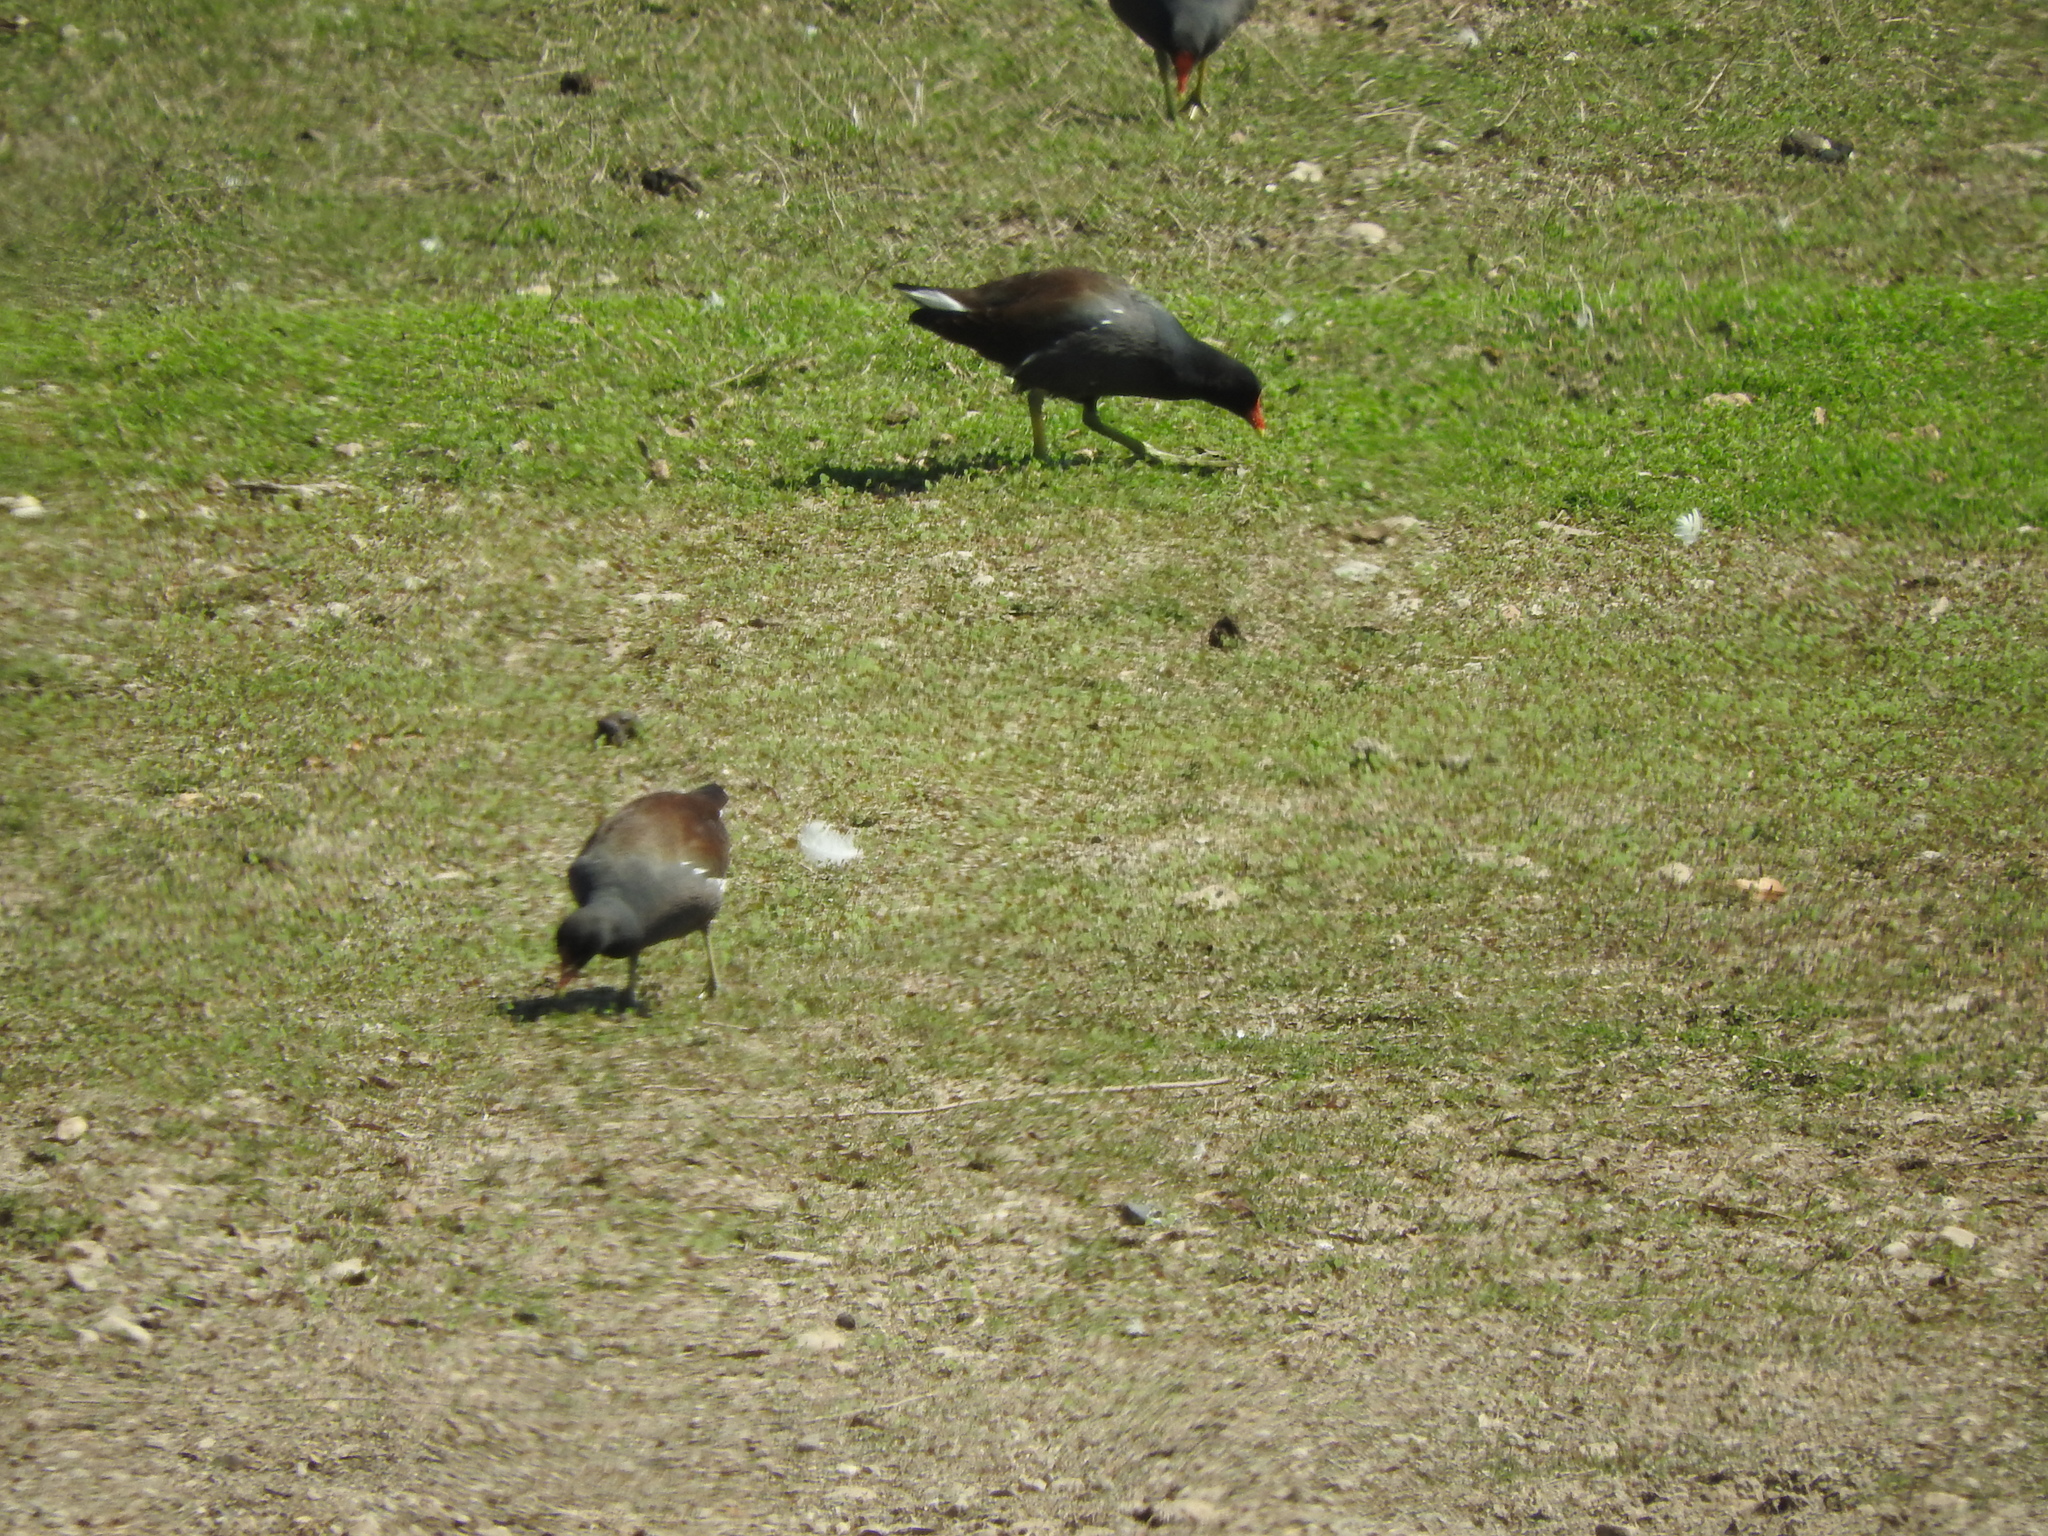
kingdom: Animalia
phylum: Chordata
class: Aves
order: Gruiformes
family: Rallidae
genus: Gallinula
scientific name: Gallinula chloropus
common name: Common moorhen
